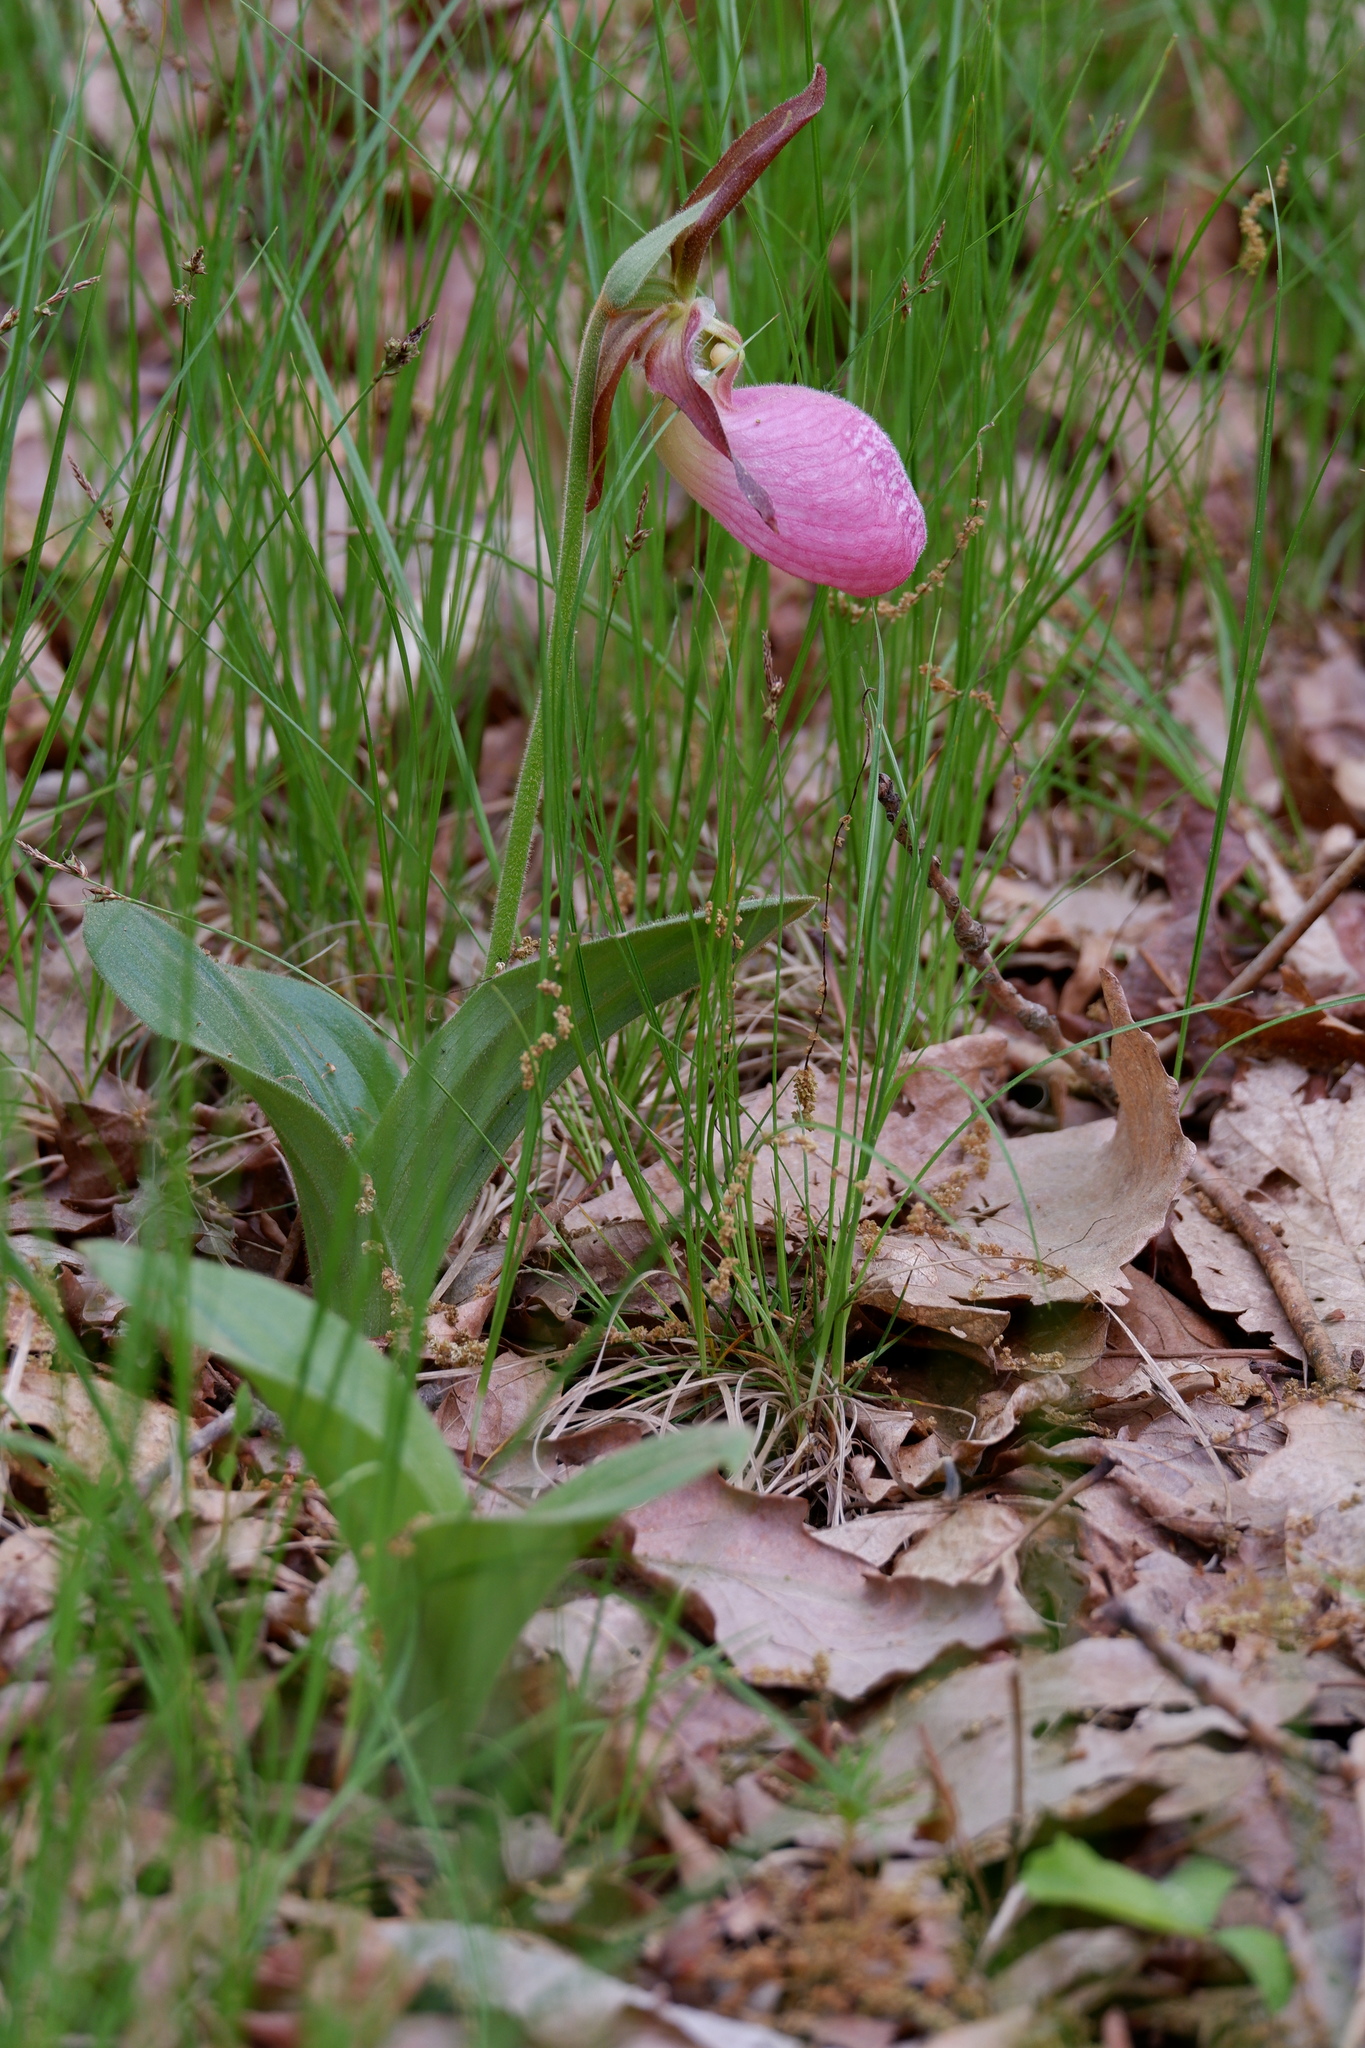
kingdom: Plantae
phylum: Tracheophyta
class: Liliopsida
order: Asparagales
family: Orchidaceae
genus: Cypripedium
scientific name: Cypripedium acaule
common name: Pink lady's-slipper
